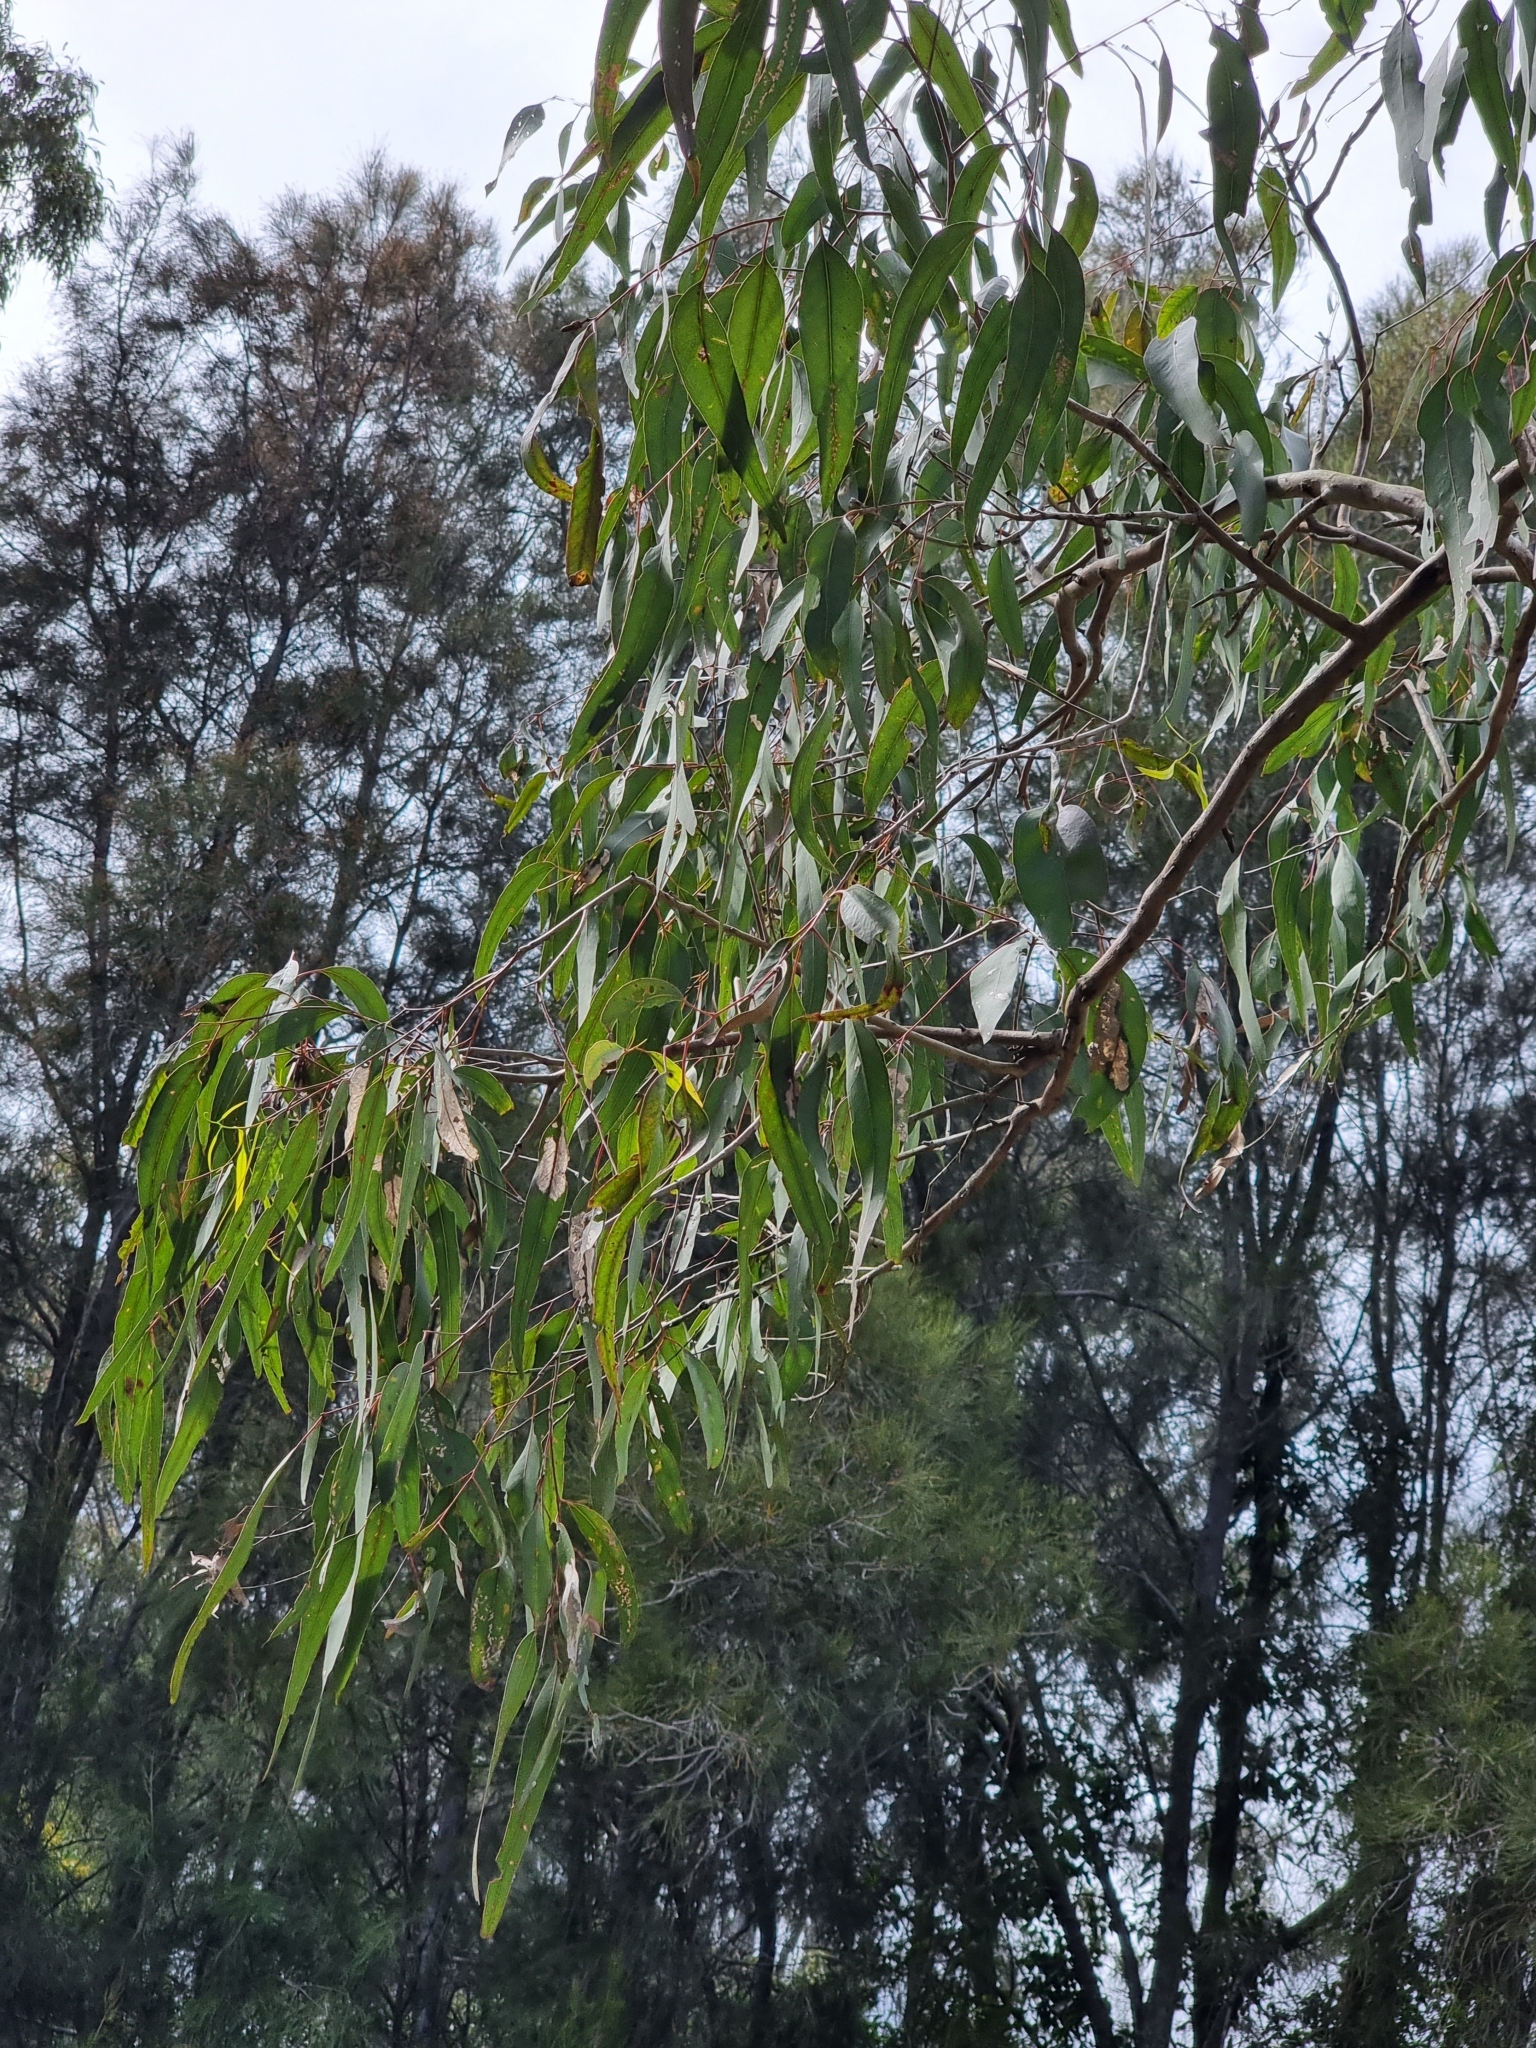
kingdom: Plantae
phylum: Tracheophyta
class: Magnoliopsida
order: Myrtales
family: Myrtaceae
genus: Eucalyptus
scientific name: Eucalyptus tereticornis
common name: Forest redgum
